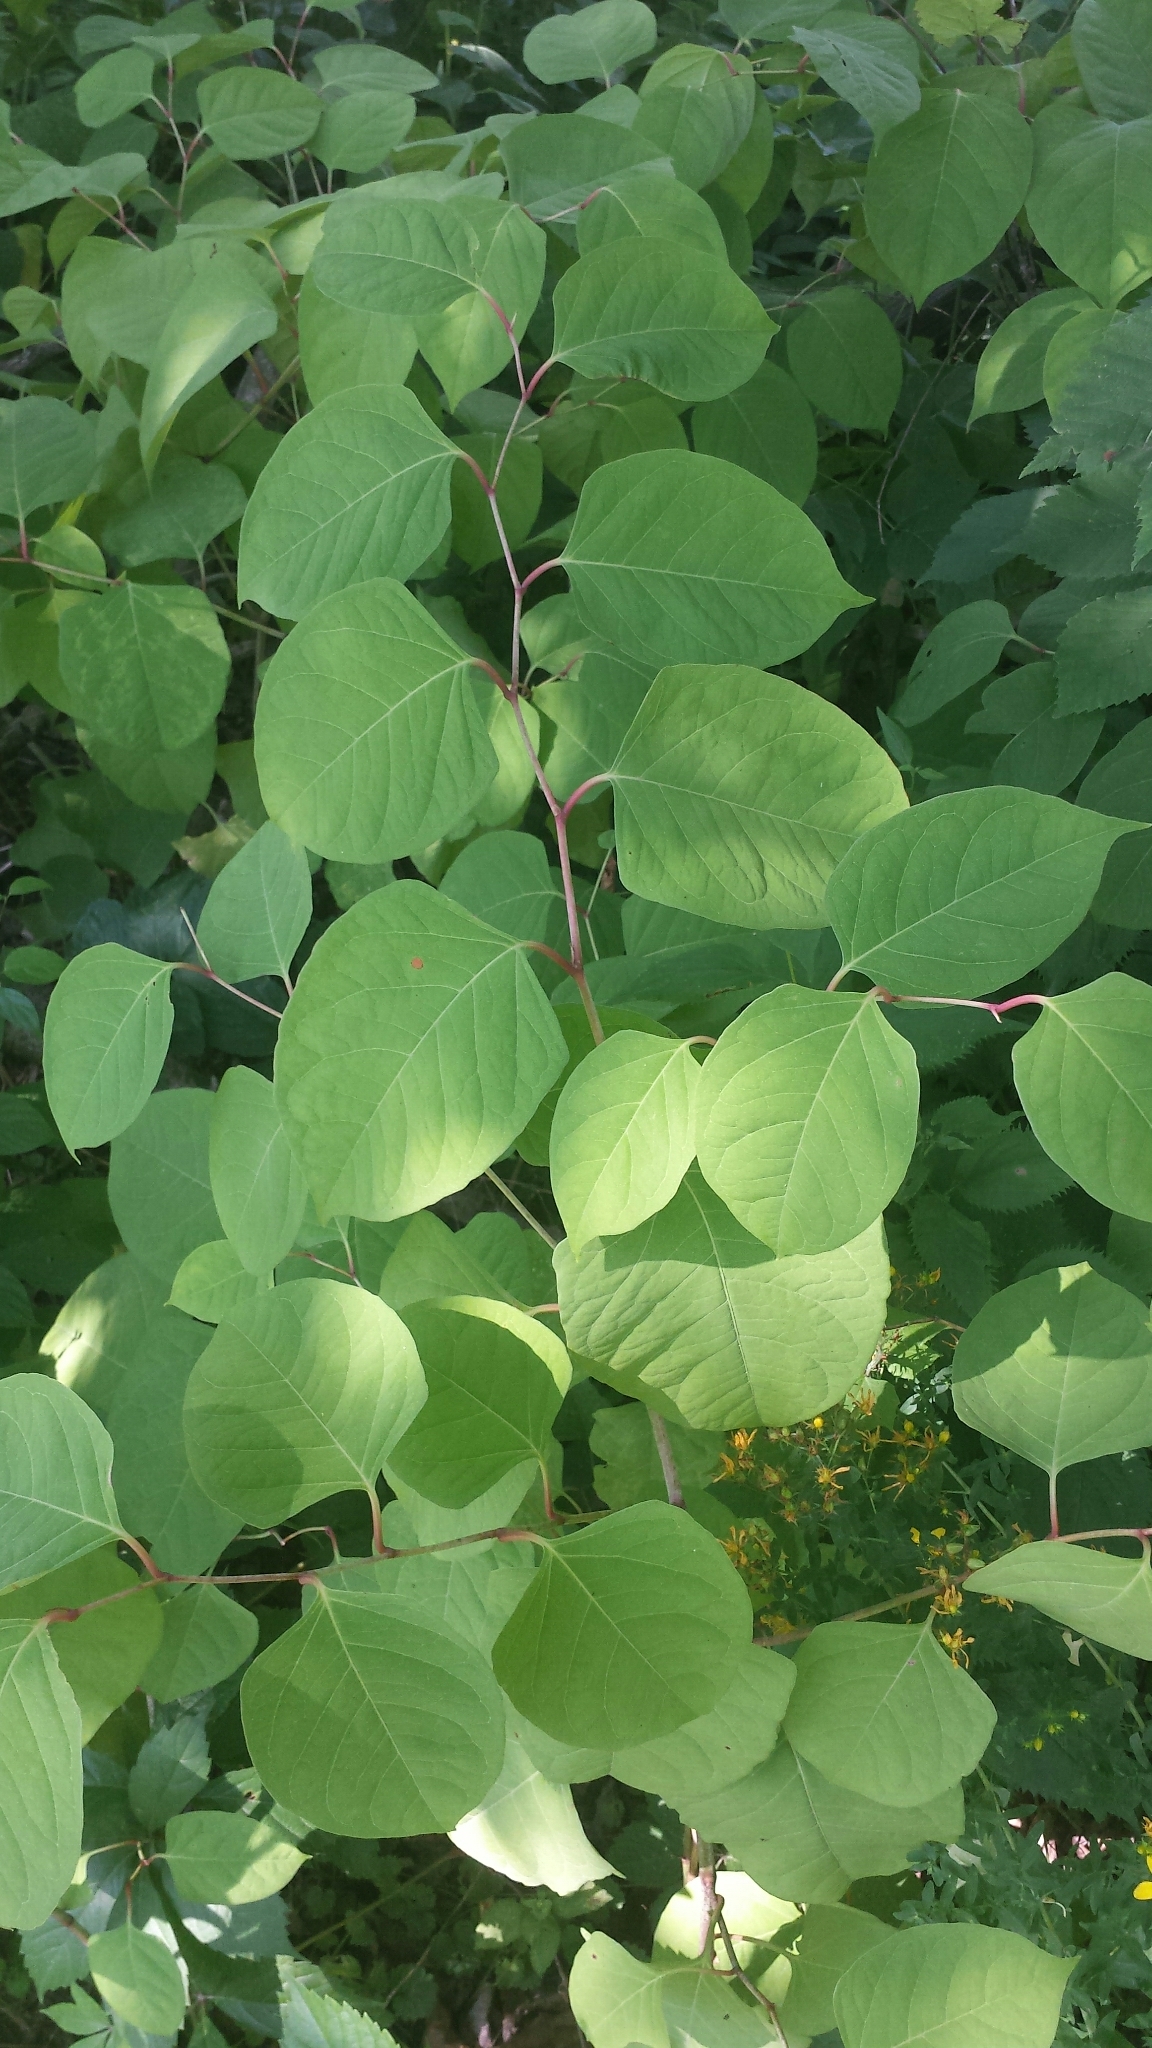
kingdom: Plantae
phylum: Tracheophyta
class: Magnoliopsida
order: Caryophyllales
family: Polygonaceae
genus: Reynoutria
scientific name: Reynoutria japonica
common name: Japanese knotweed
